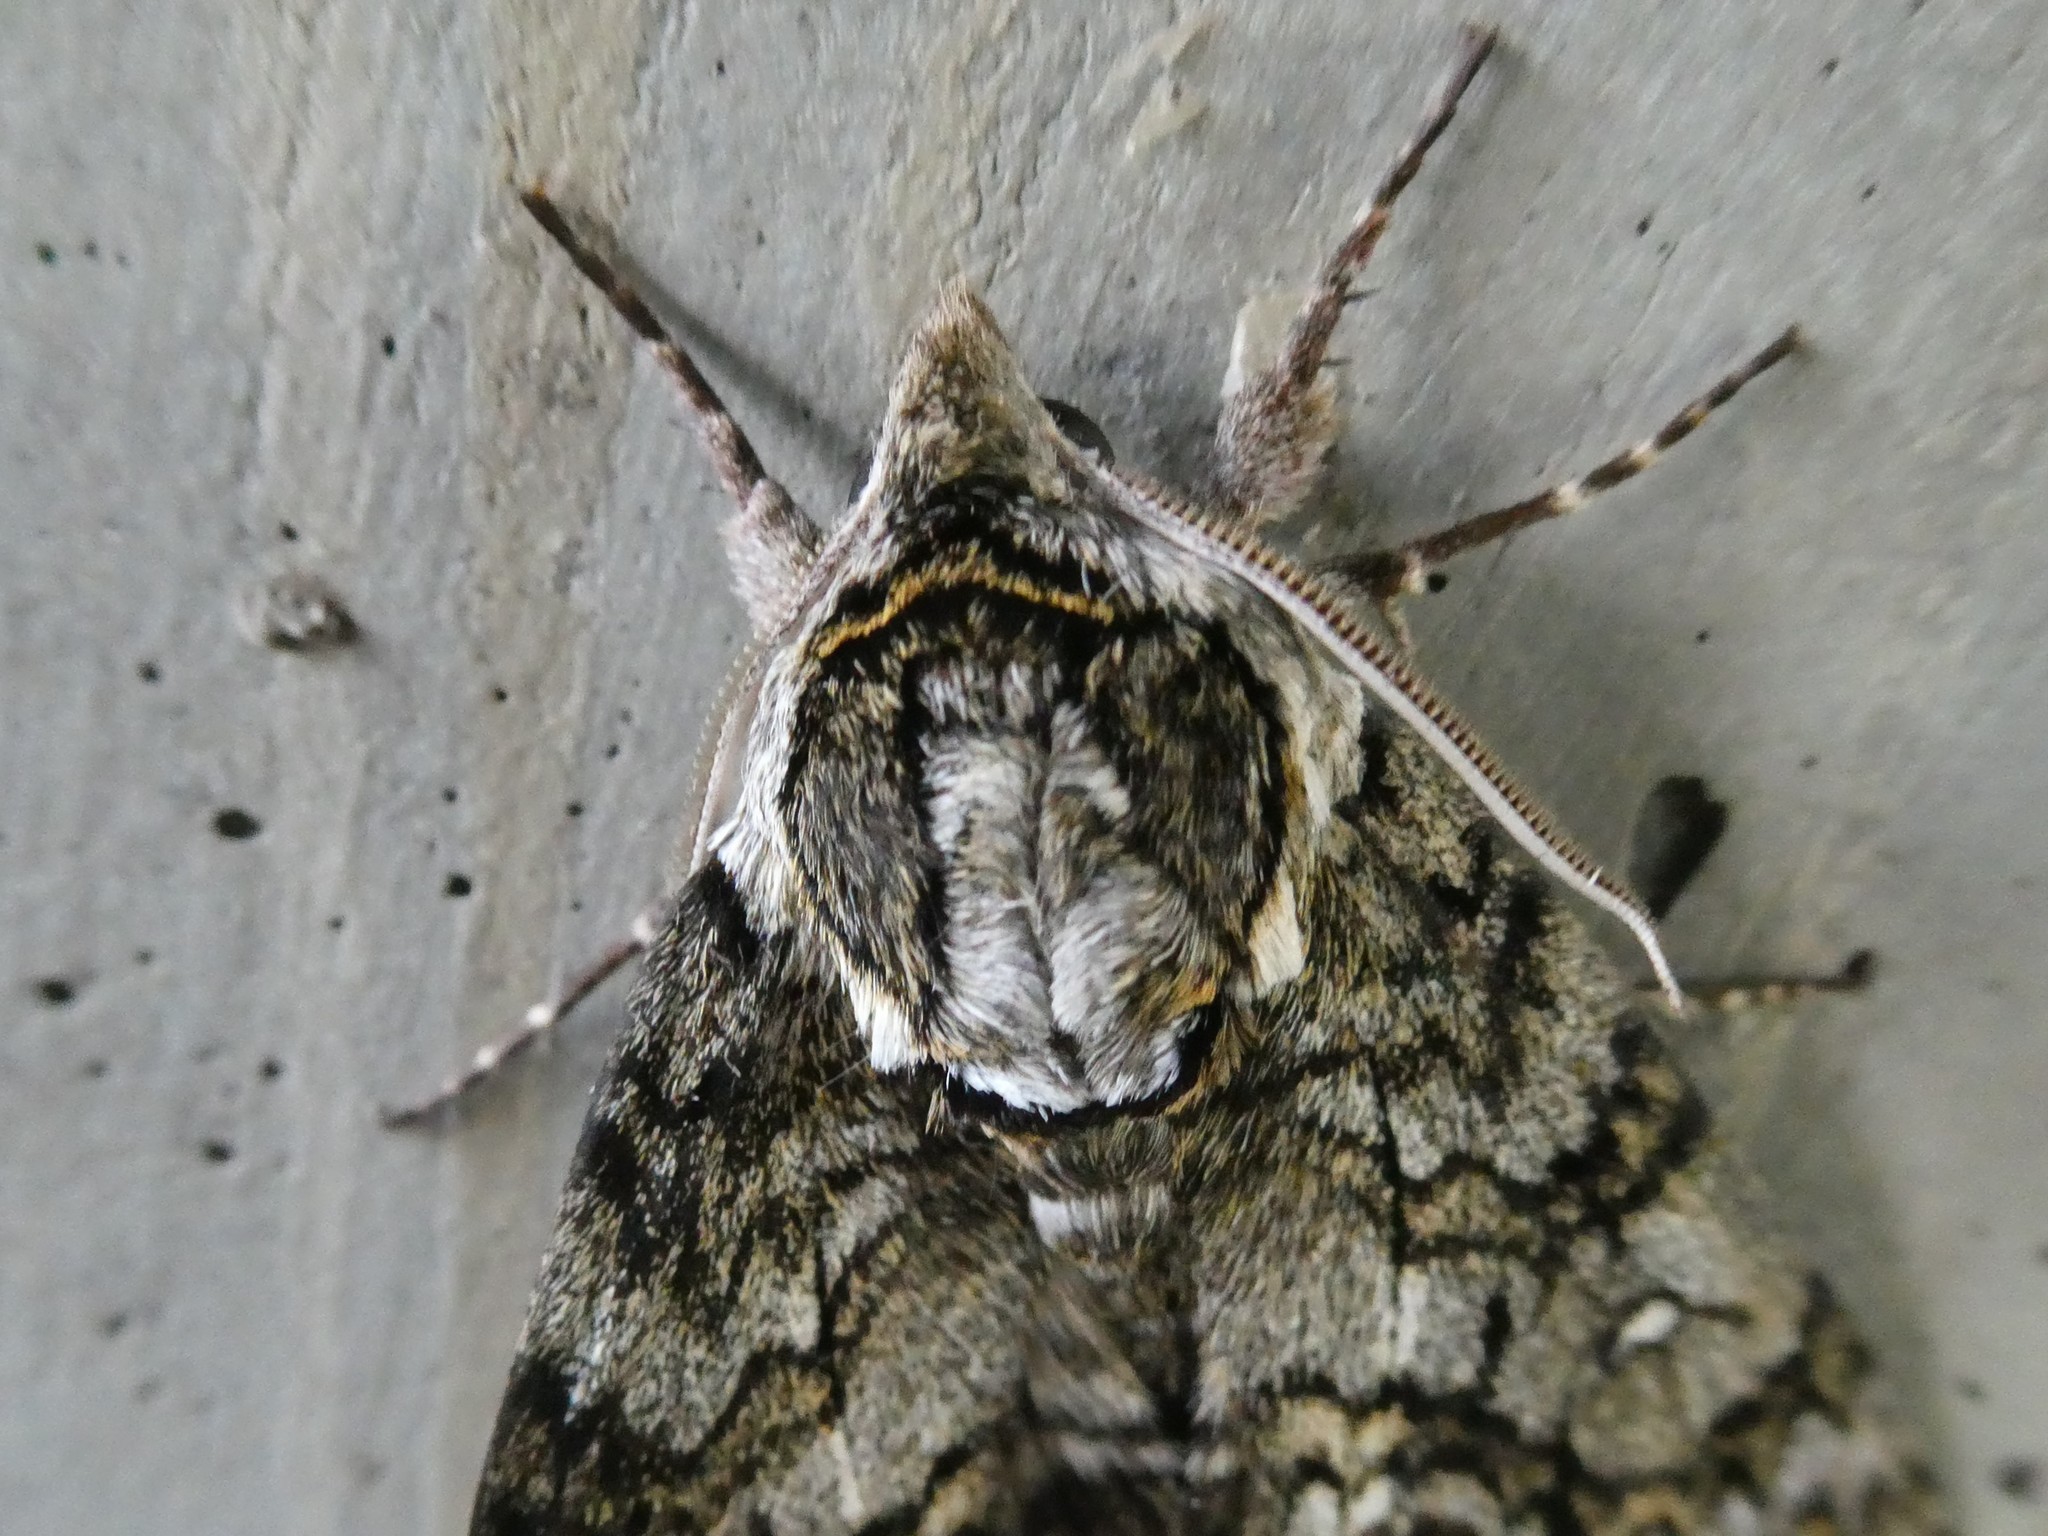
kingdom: Animalia
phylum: Arthropoda
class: Insecta
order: Lepidoptera
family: Sphingidae
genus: Ceratomia
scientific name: Ceratomia undulosa
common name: Waved sphinx
